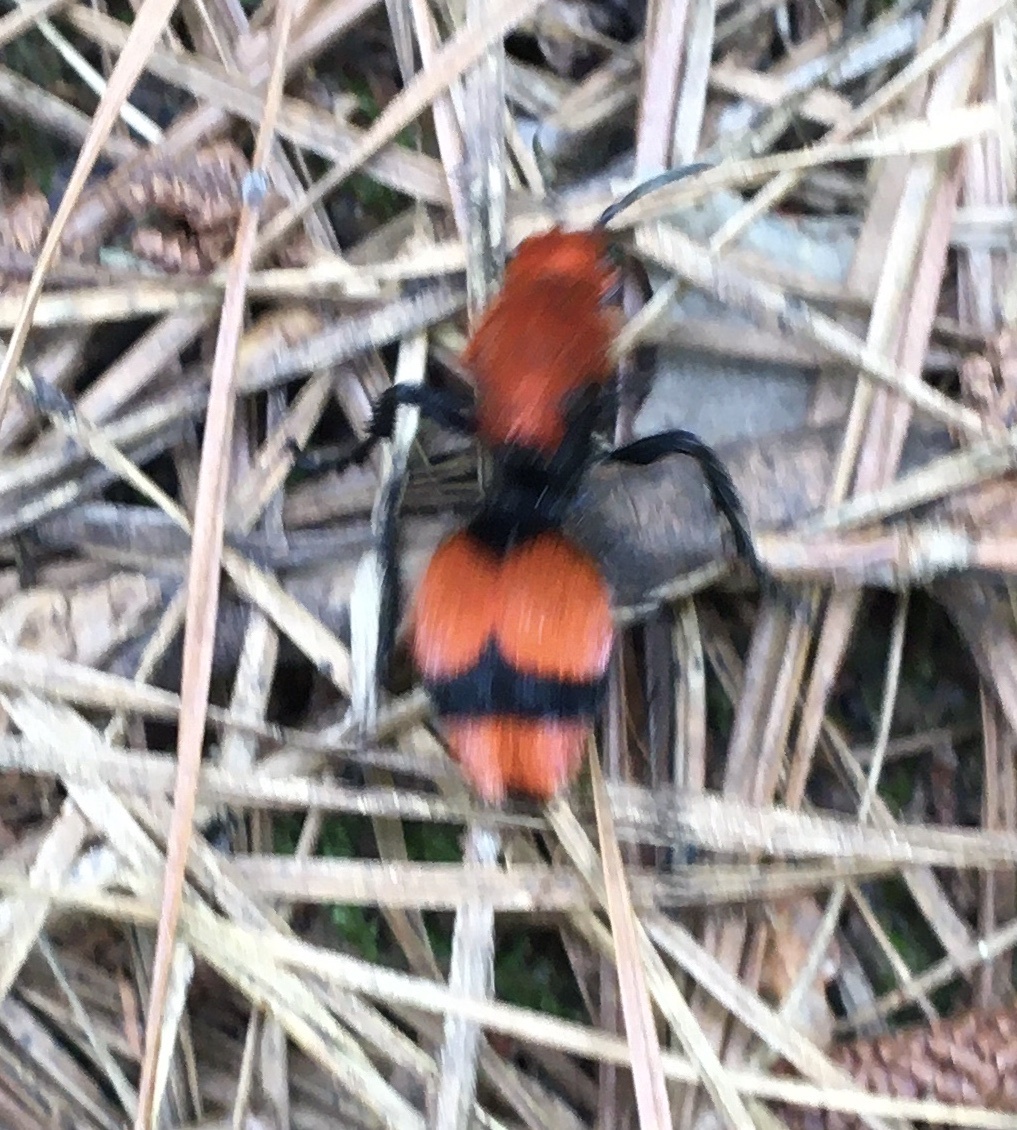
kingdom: Animalia
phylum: Arthropoda
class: Insecta
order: Hymenoptera
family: Mutillidae
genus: Dasymutilla
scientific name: Dasymutilla occidentalis
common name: Common eastern velvet ant
